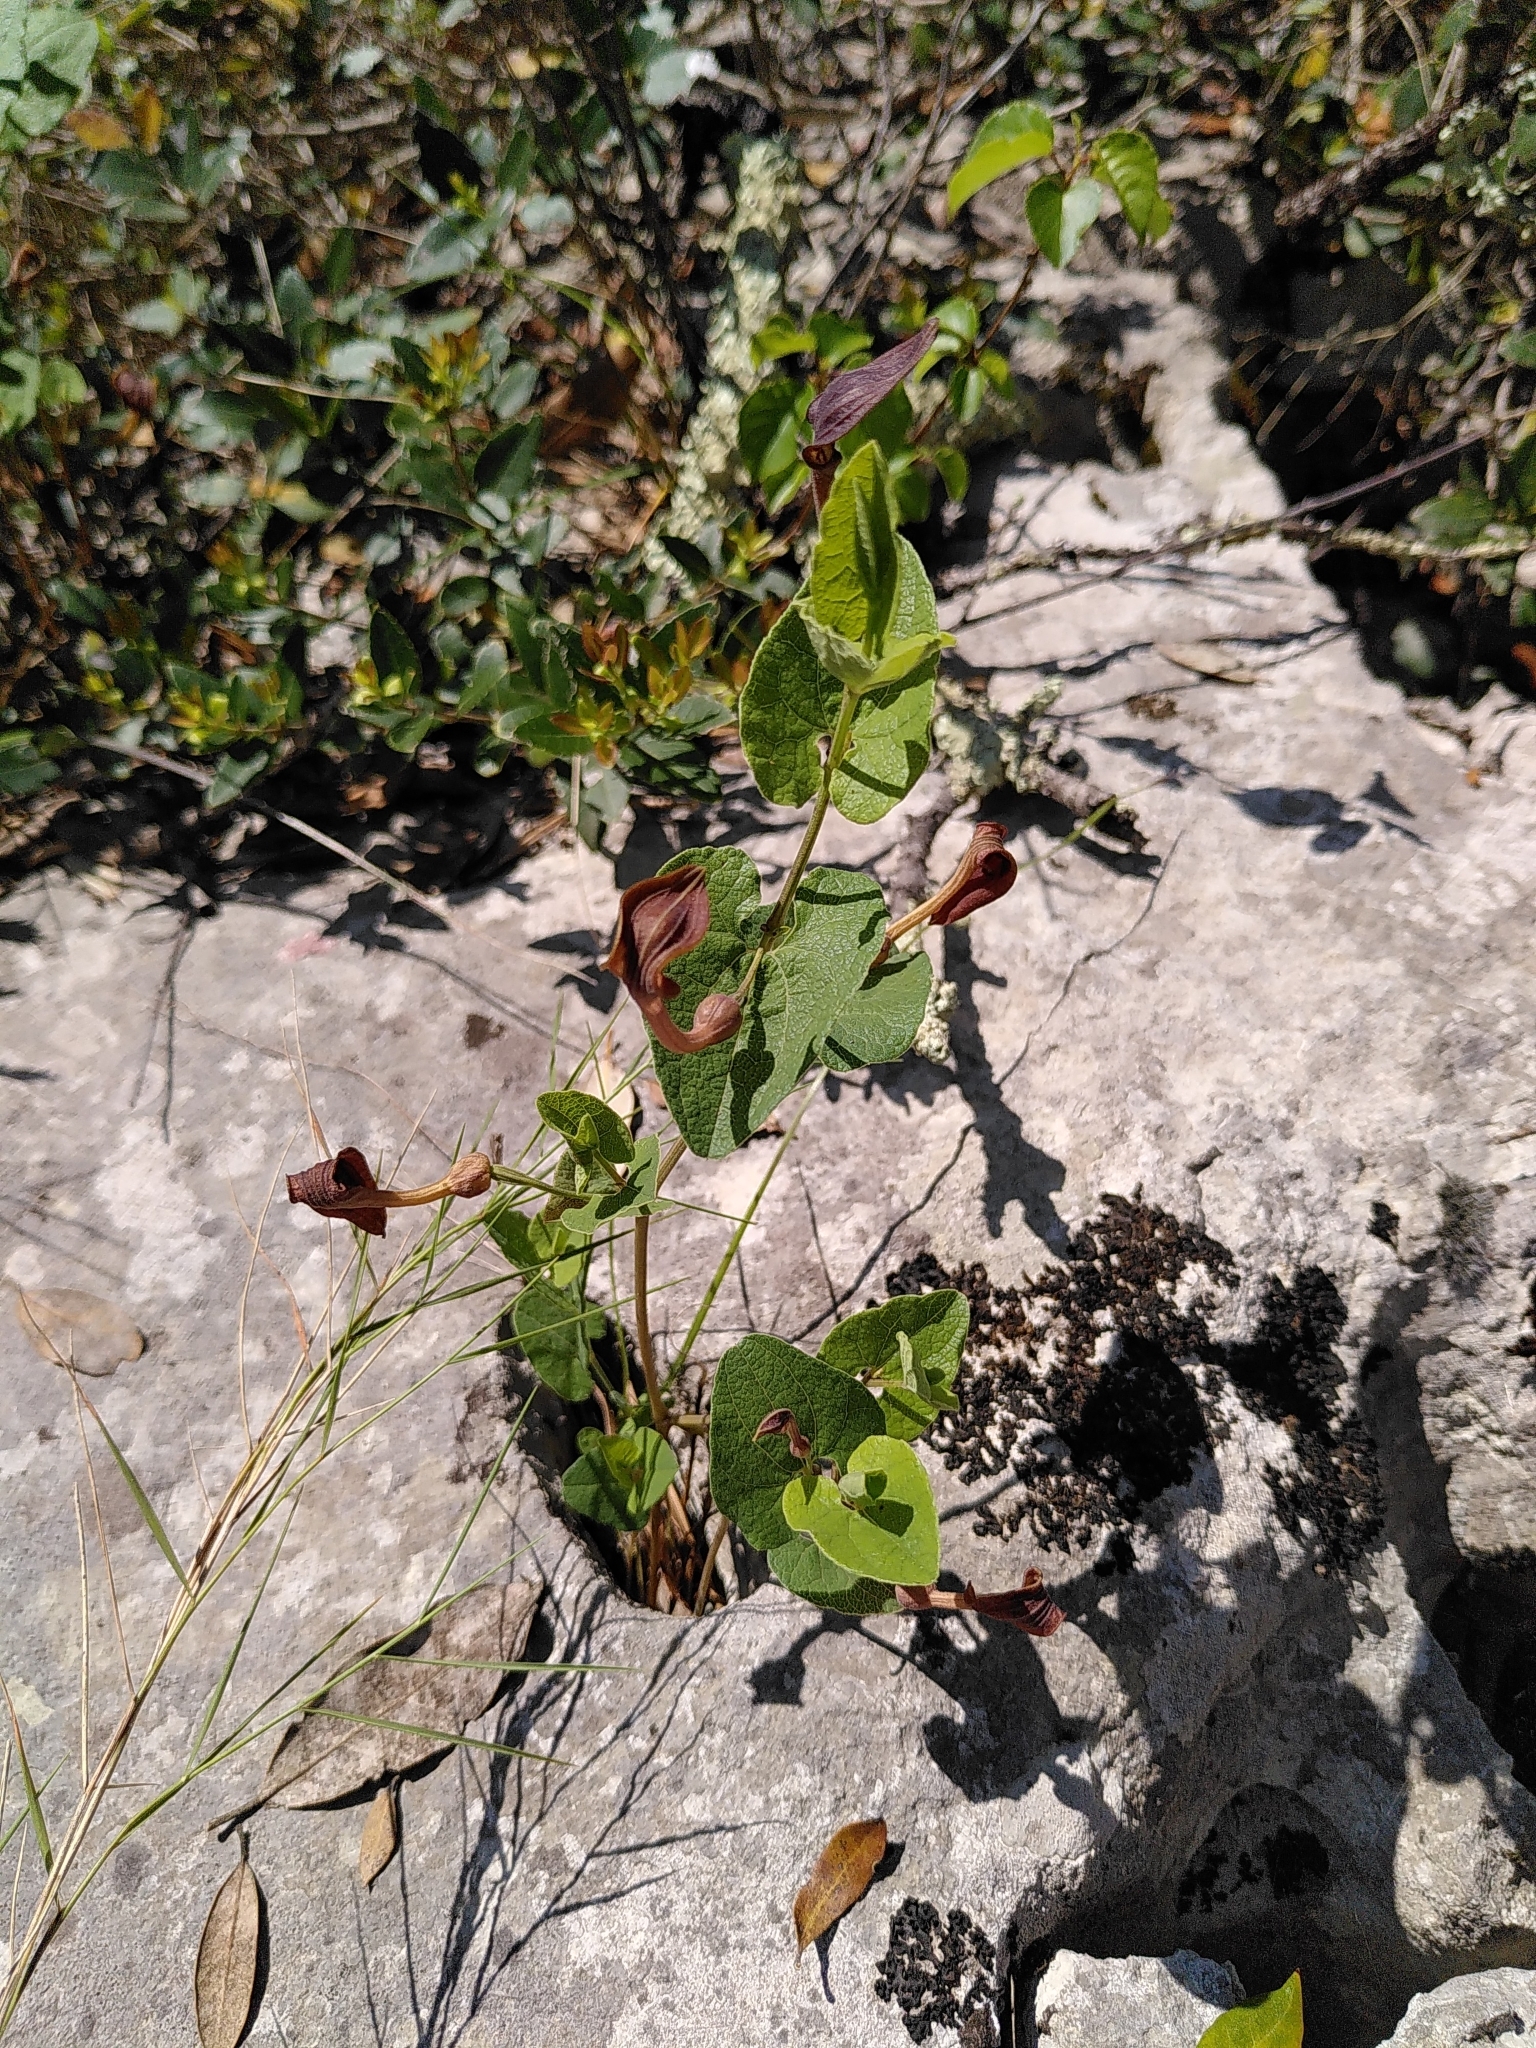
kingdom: Plantae
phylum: Tracheophyta
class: Magnoliopsida
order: Piperales
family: Aristolochiaceae
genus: Aristolochia
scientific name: Aristolochia pistolochia
